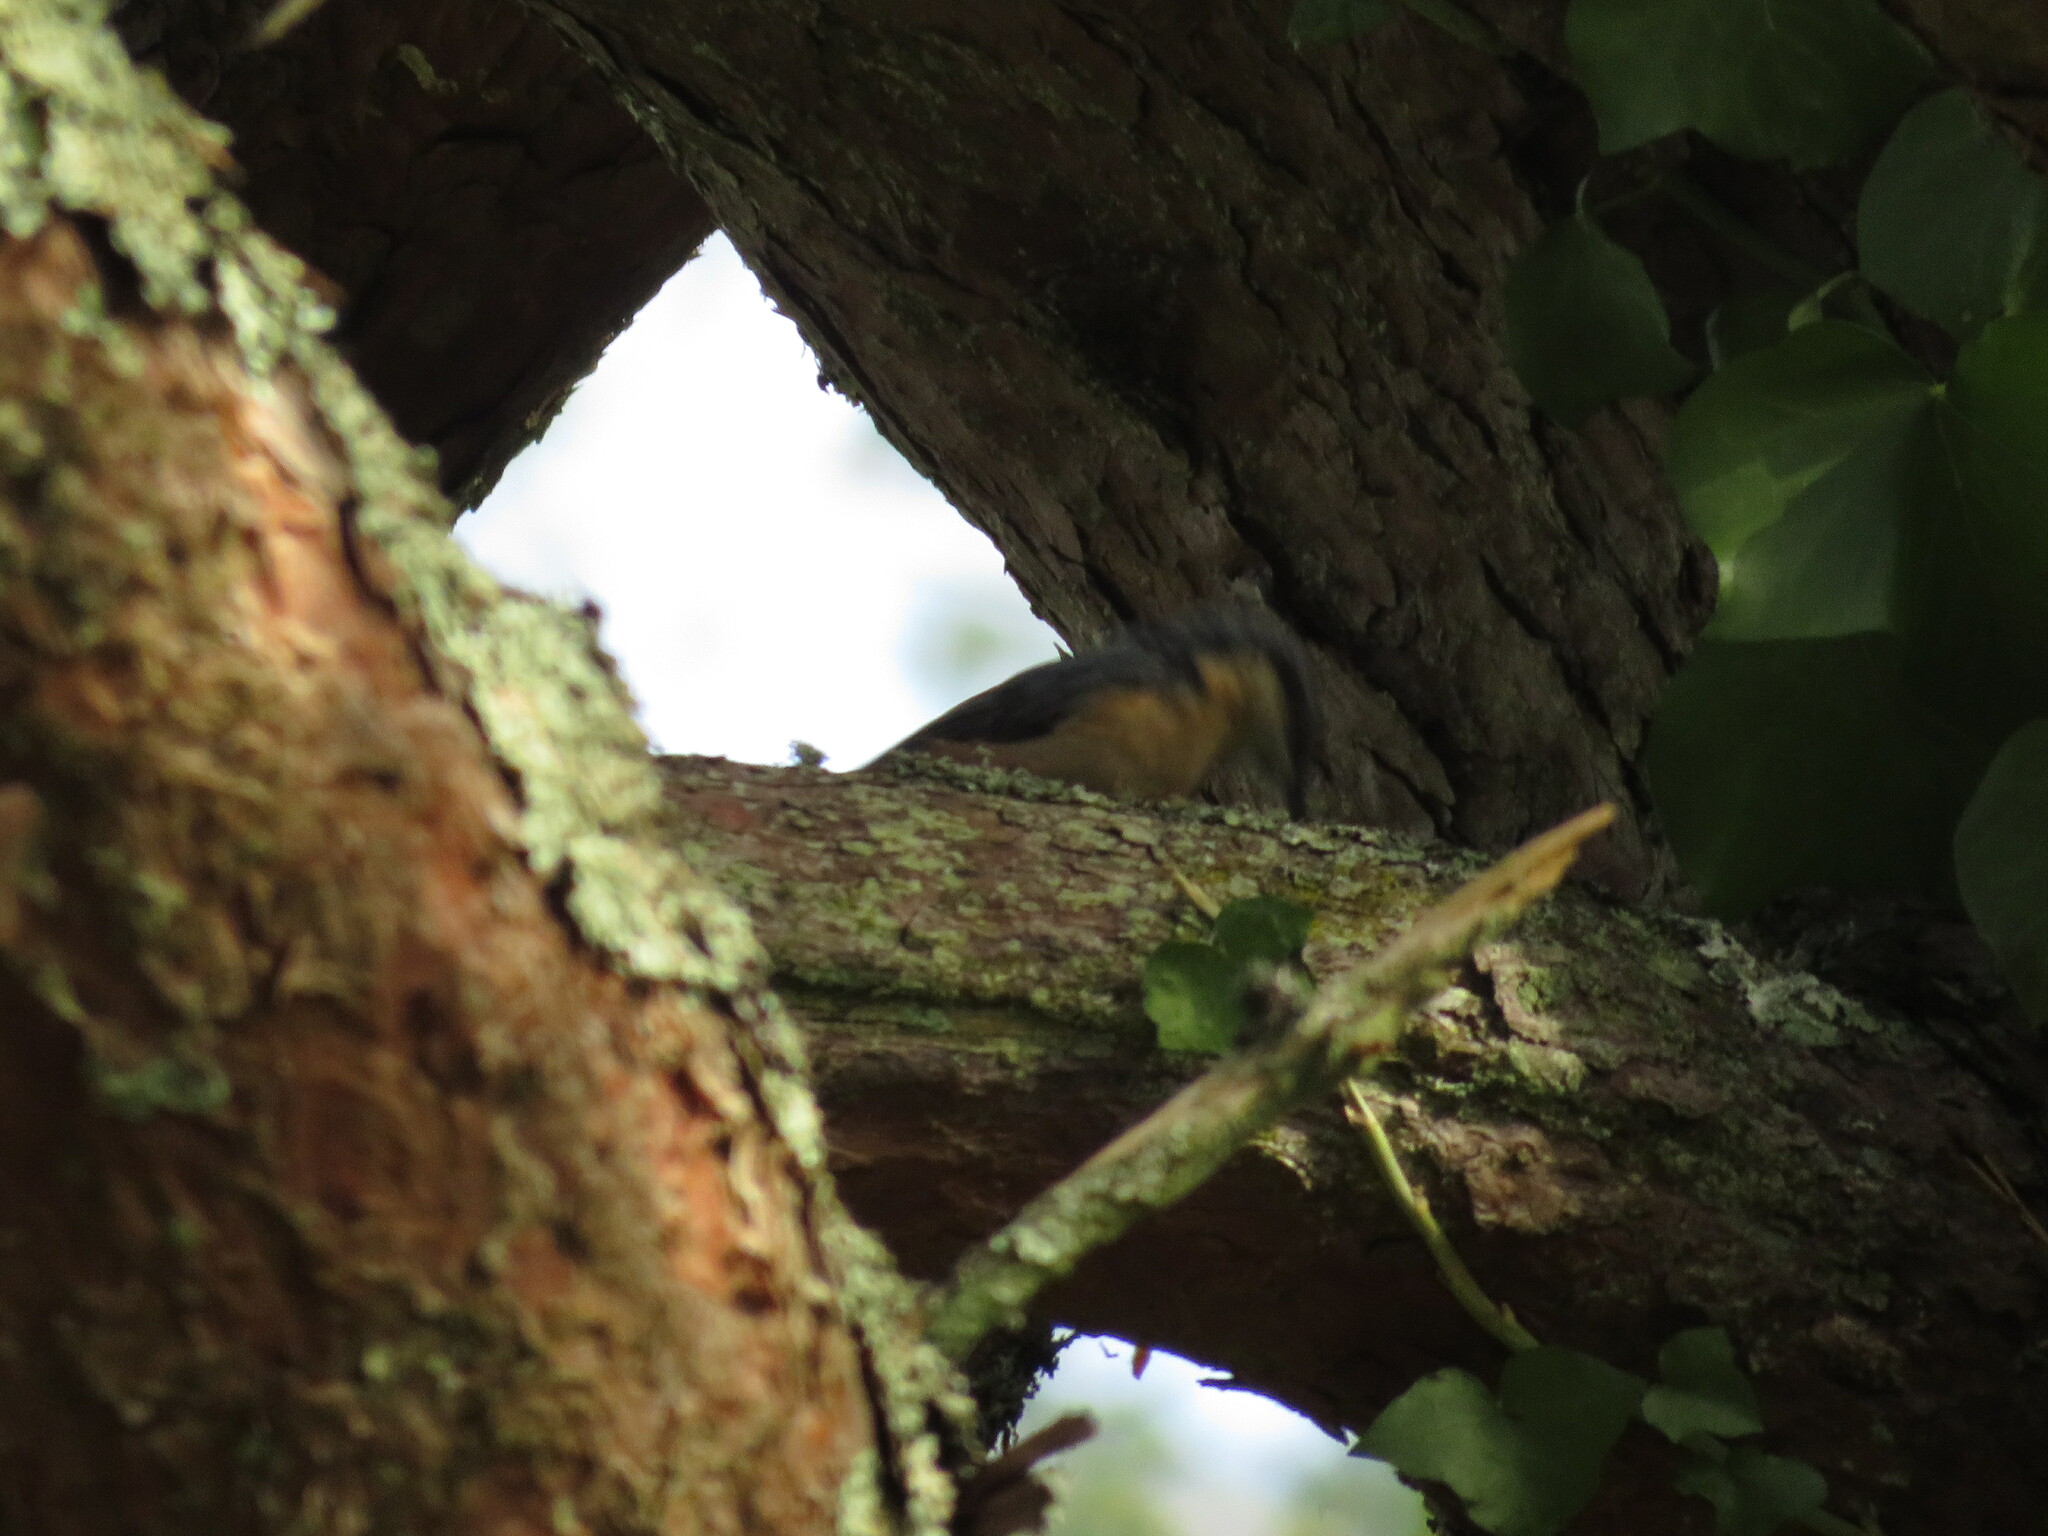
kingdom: Animalia
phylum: Chordata
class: Aves
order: Passeriformes
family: Sittidae
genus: Sitta
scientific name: Sitta europaea
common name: Eurasian nuthatch
